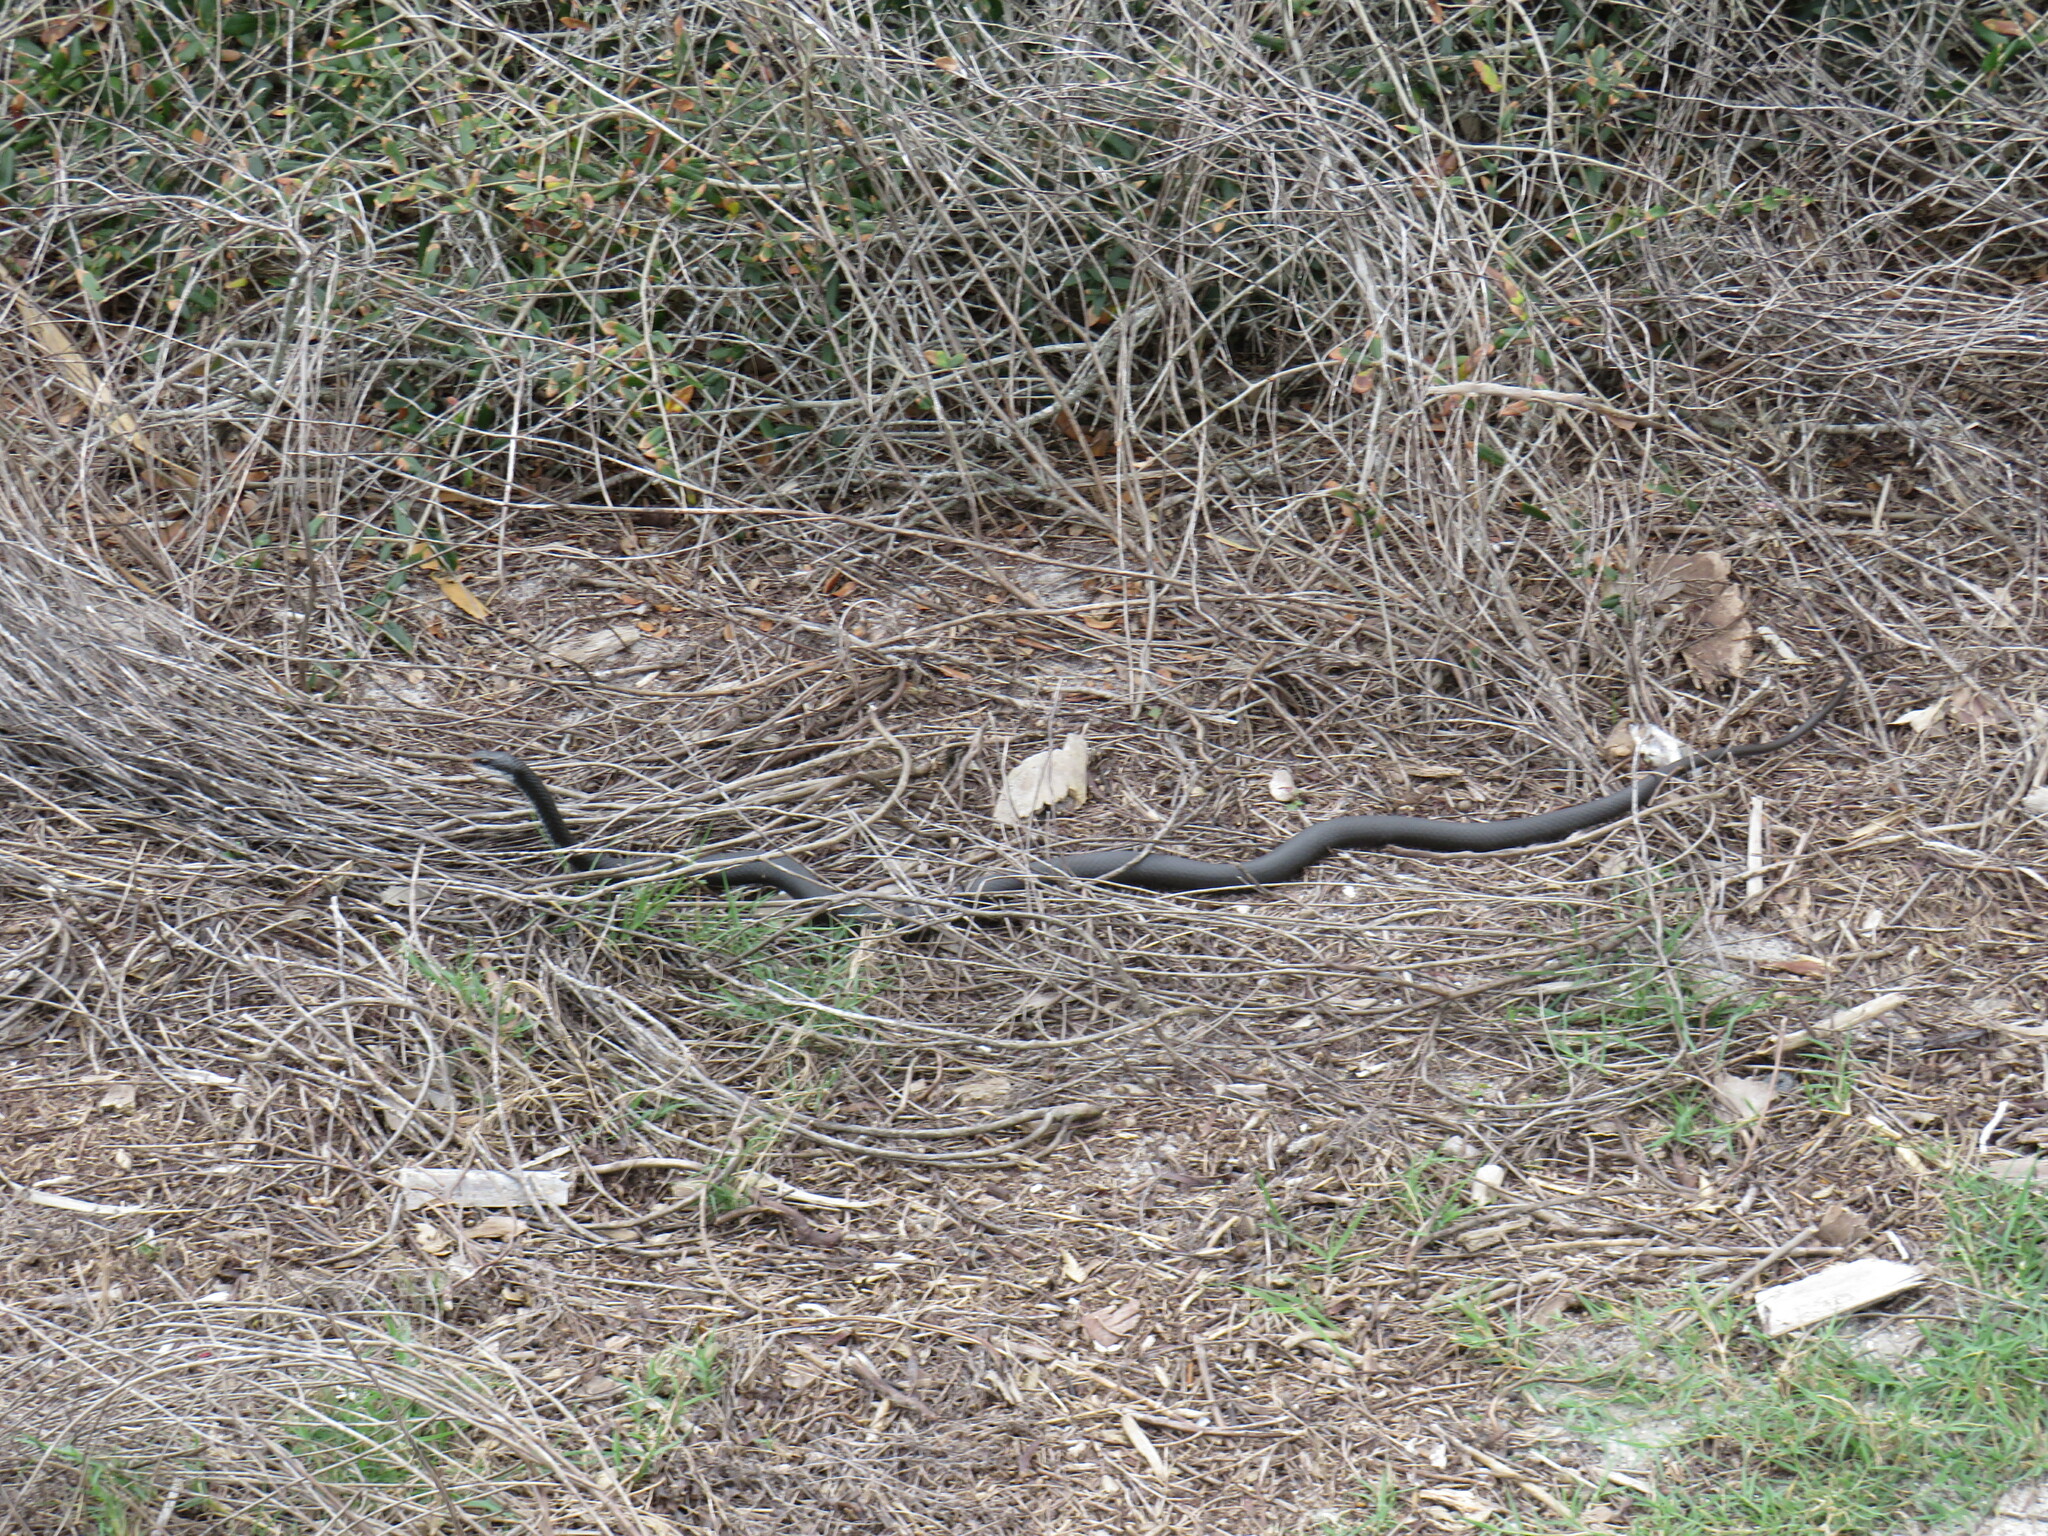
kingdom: Animalia
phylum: Chordata
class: Squamata
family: Colubridae
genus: Coluber
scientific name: Coluber constrictor
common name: Eastern racer
